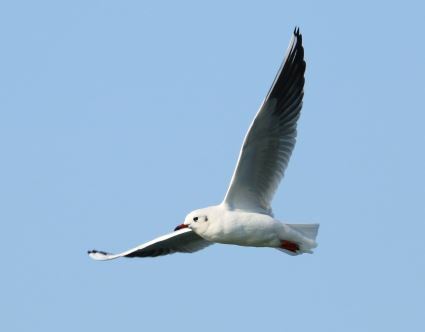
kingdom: Animalia
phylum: Chordata
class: Aves
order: Charadriiformes
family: Laridae
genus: Chroicocephalus
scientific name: Chroicocephalus ridibundus
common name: Black-headed gull
